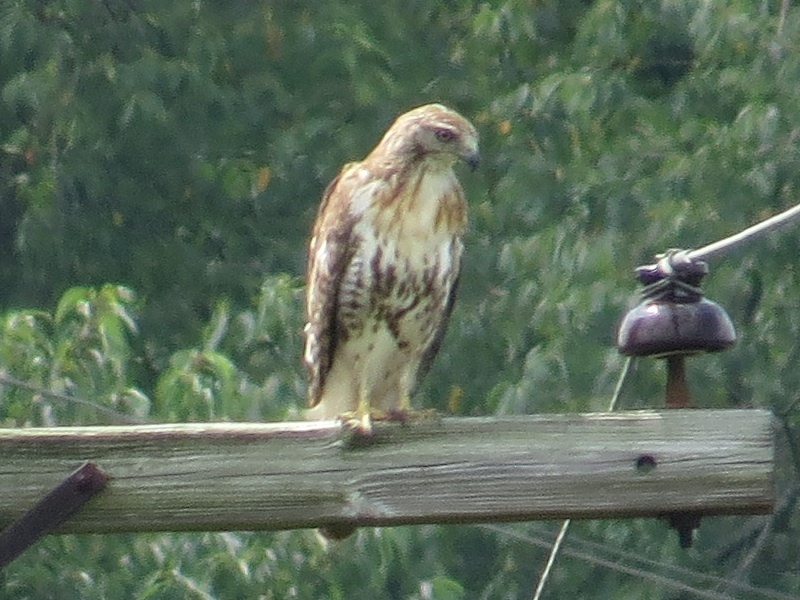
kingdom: Animalia
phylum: Chordata
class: Aves
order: Accipitriformes
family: Accipitridae
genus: Buteo
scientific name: Buteo jamaicensis
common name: Red-tailed hawk
